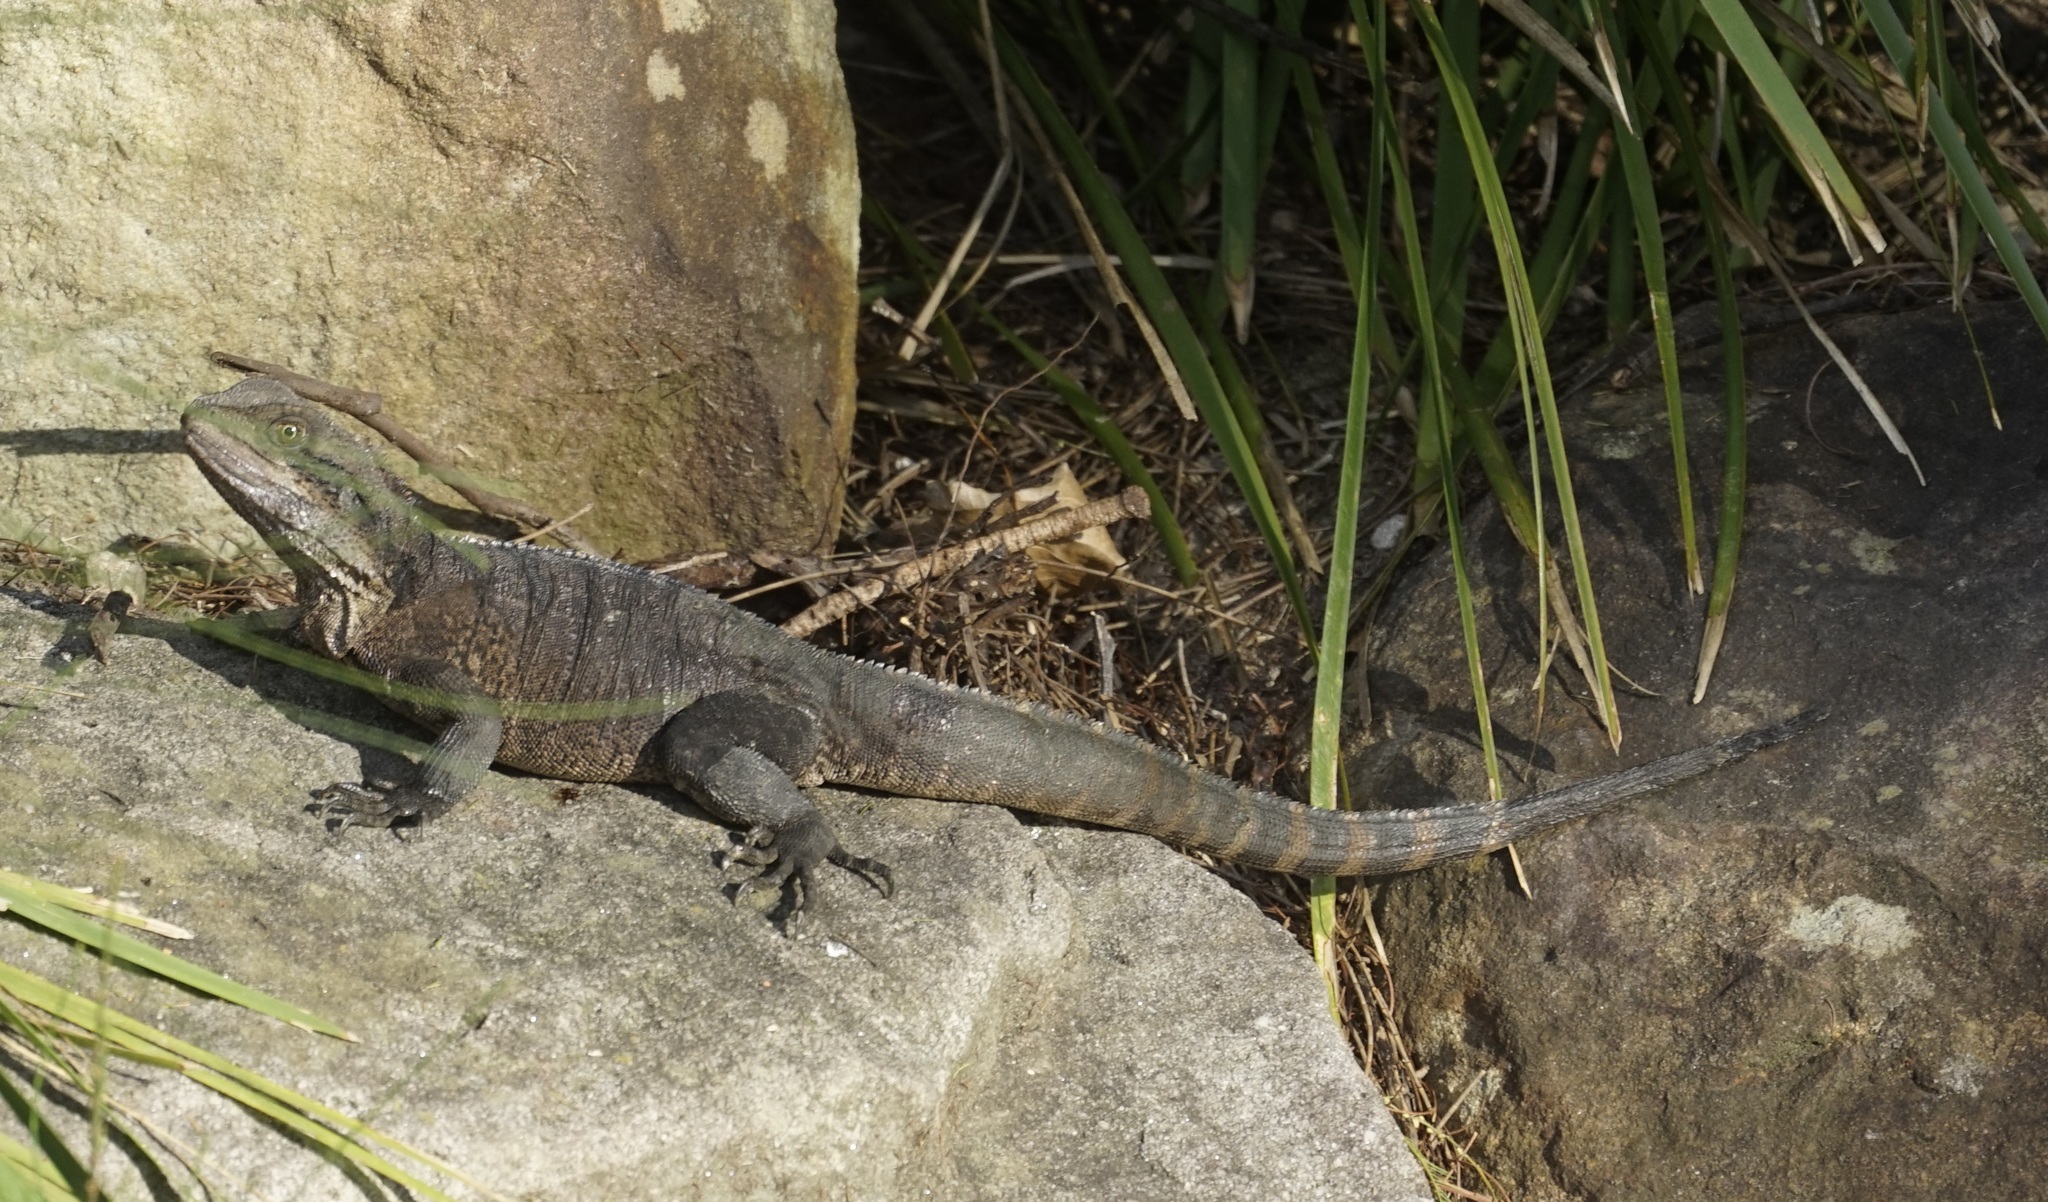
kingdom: Animalia
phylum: Chordata
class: Squamata
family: Agamidae
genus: Intellagama
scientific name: Intellagama lesueurii
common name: Eastern water dragon
